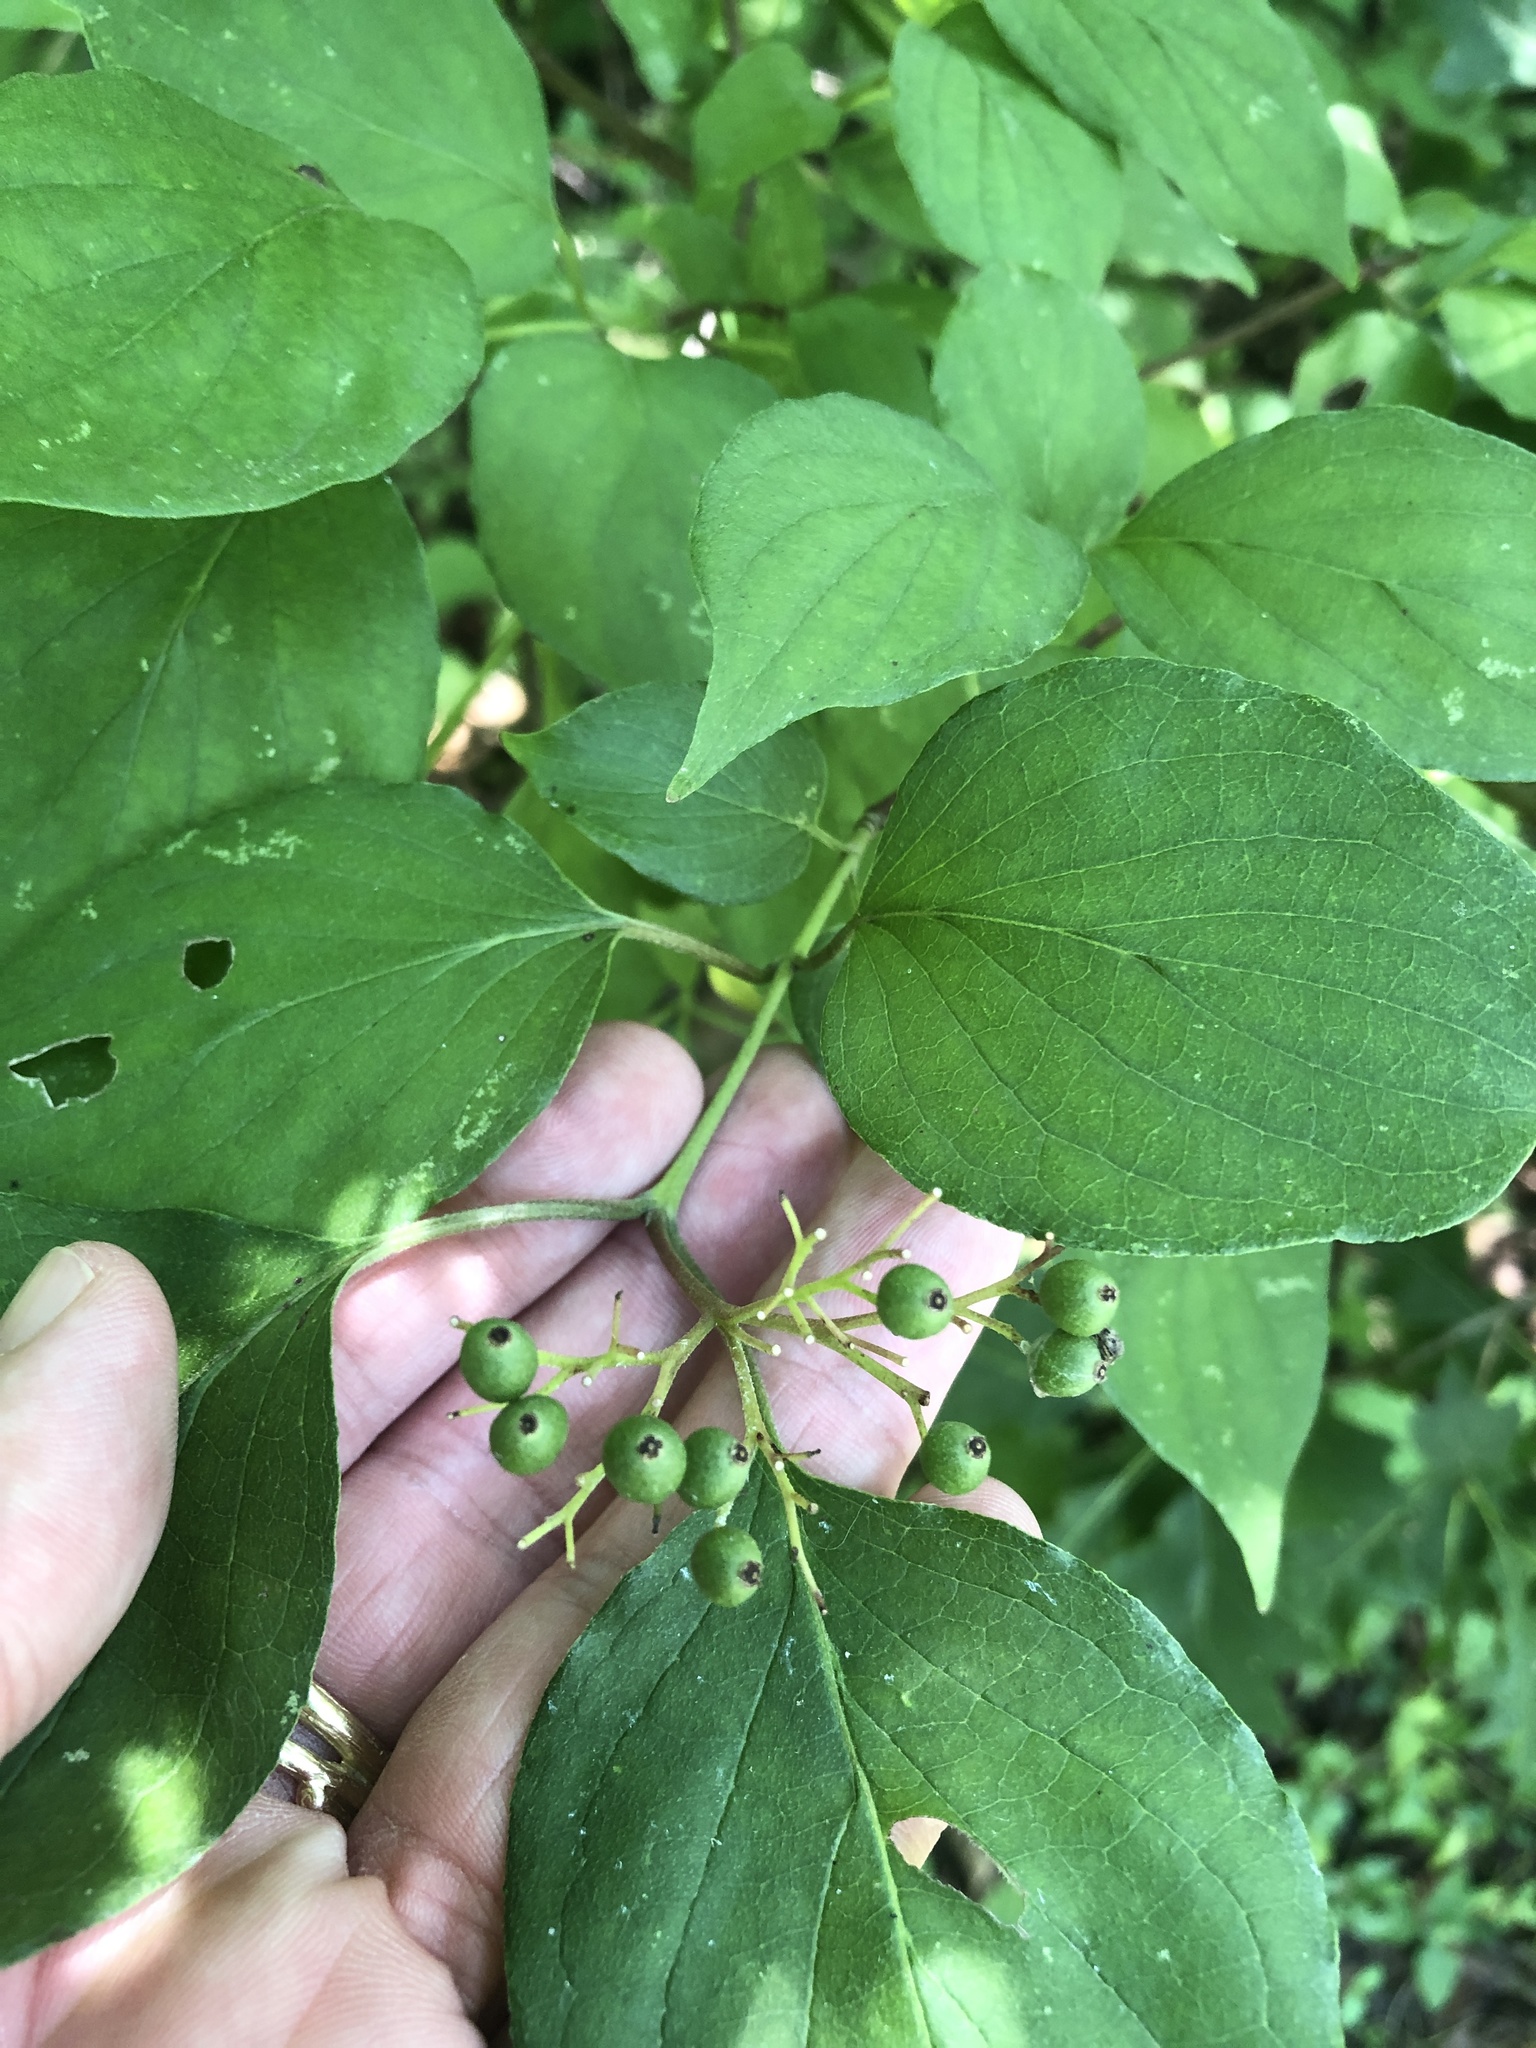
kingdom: Plantae
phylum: Tracheophyta
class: Magnoliopsida
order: Cornales
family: Cornaceae
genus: Cornus
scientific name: Cornus drummondii
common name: Rough-leaf dogwood
